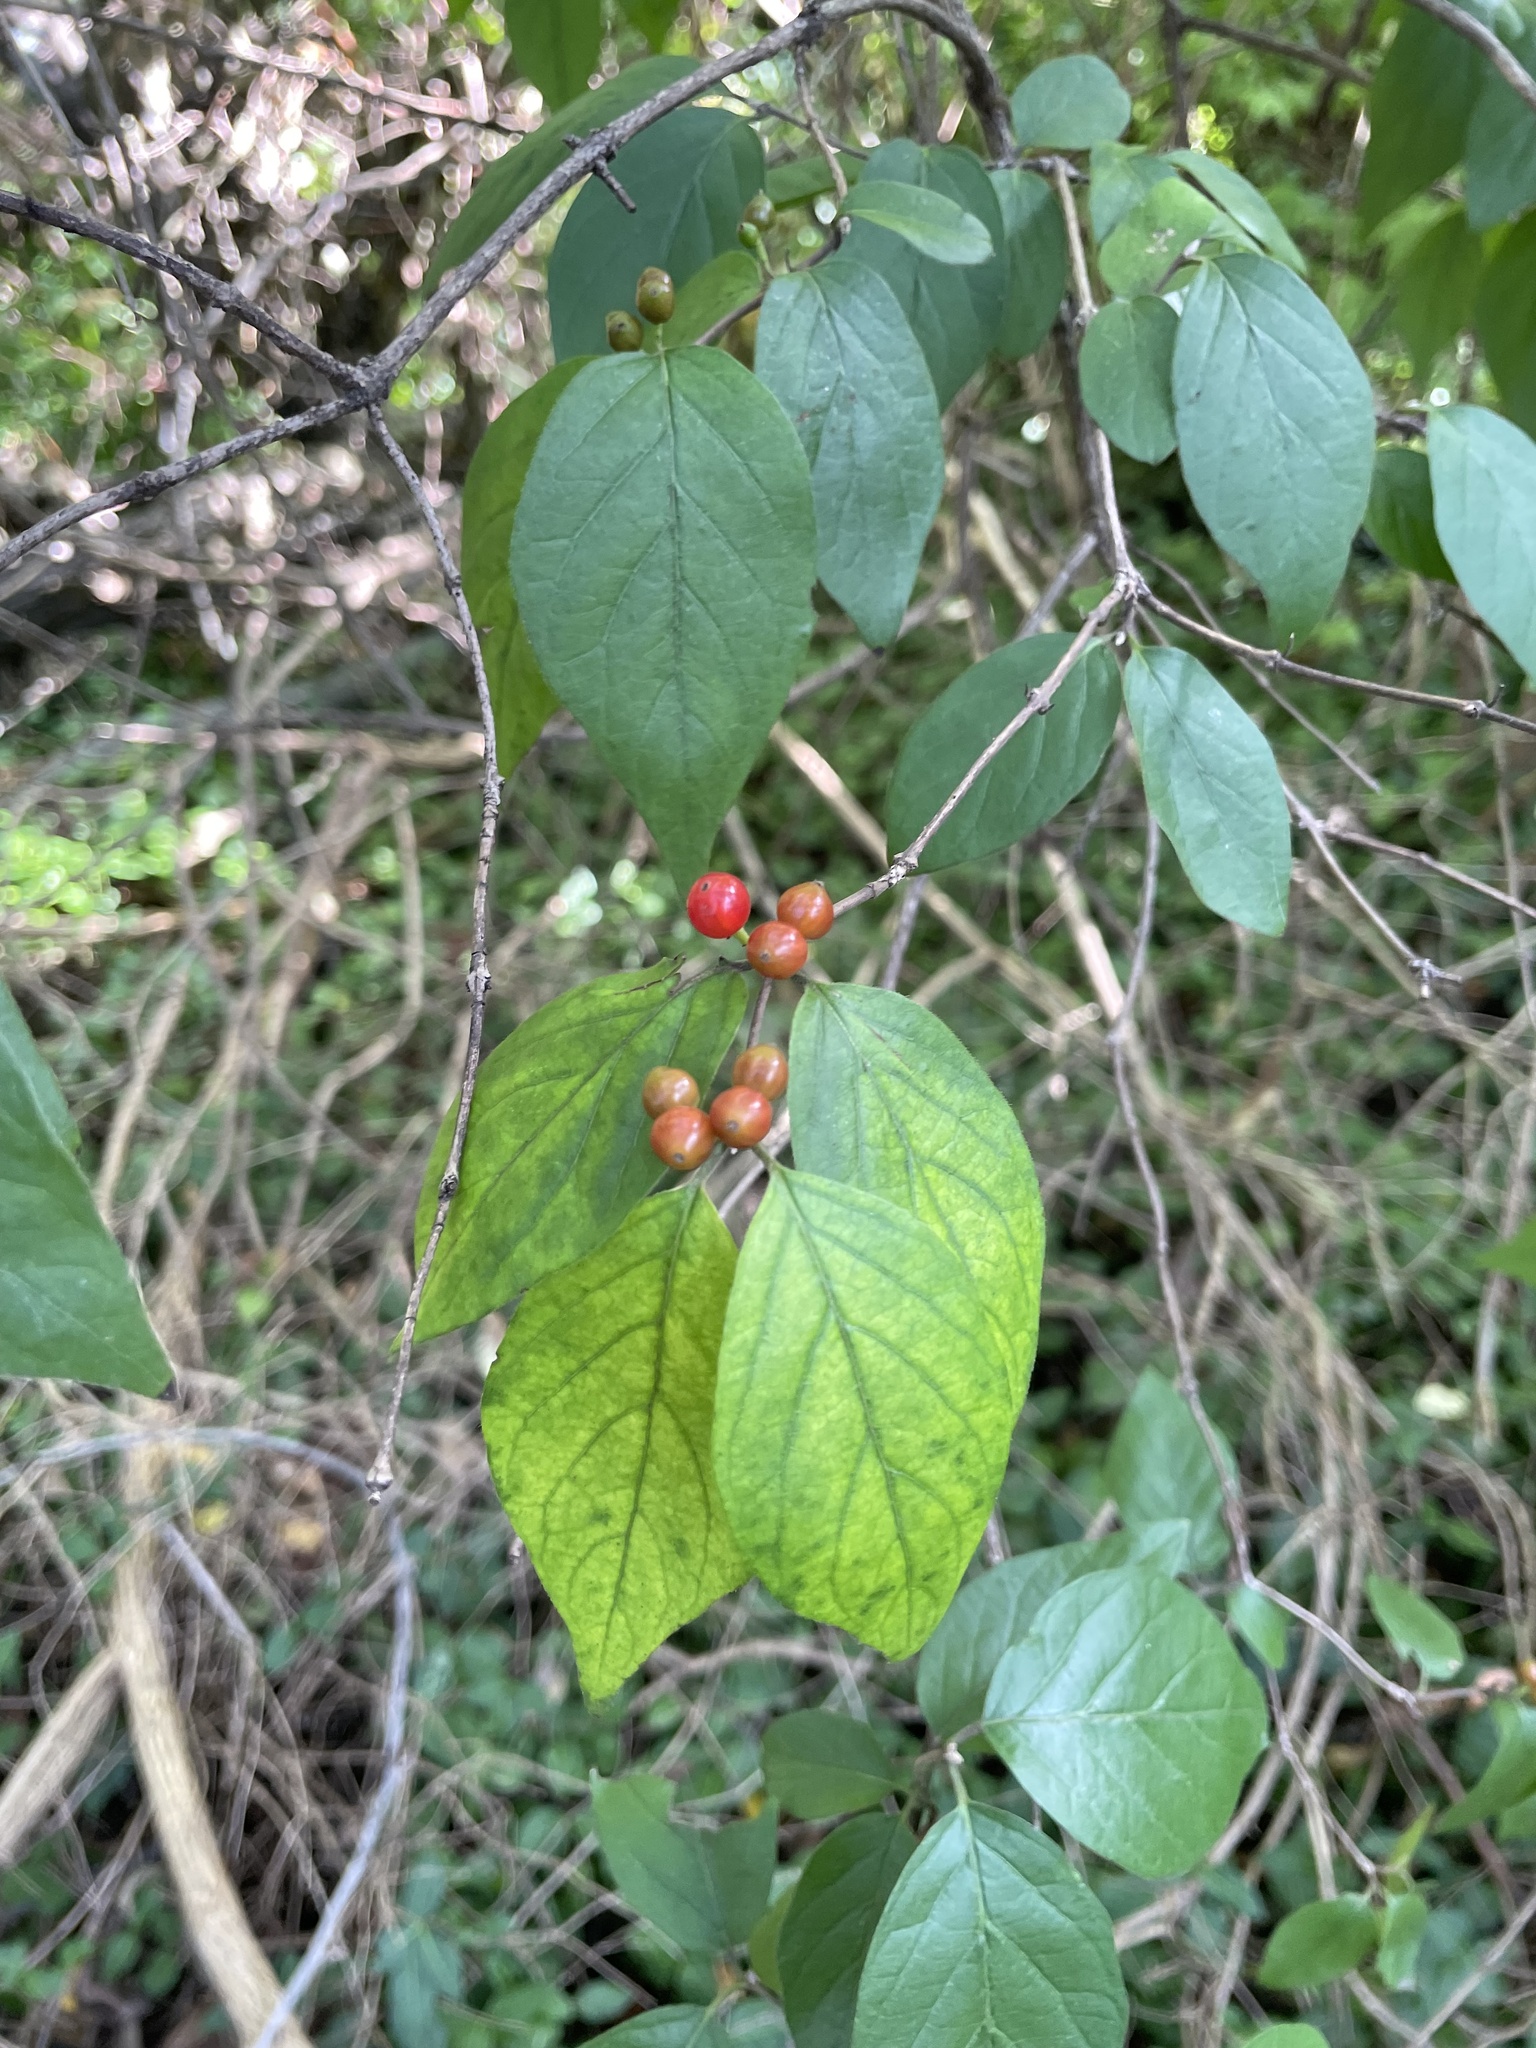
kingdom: Plantae
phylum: Tracheophyta
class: Magnoliopsida
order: Dipsacales
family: Caprifoliaceae
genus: Lonicera
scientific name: Lonicera maackii
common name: Amur honeysuckle
